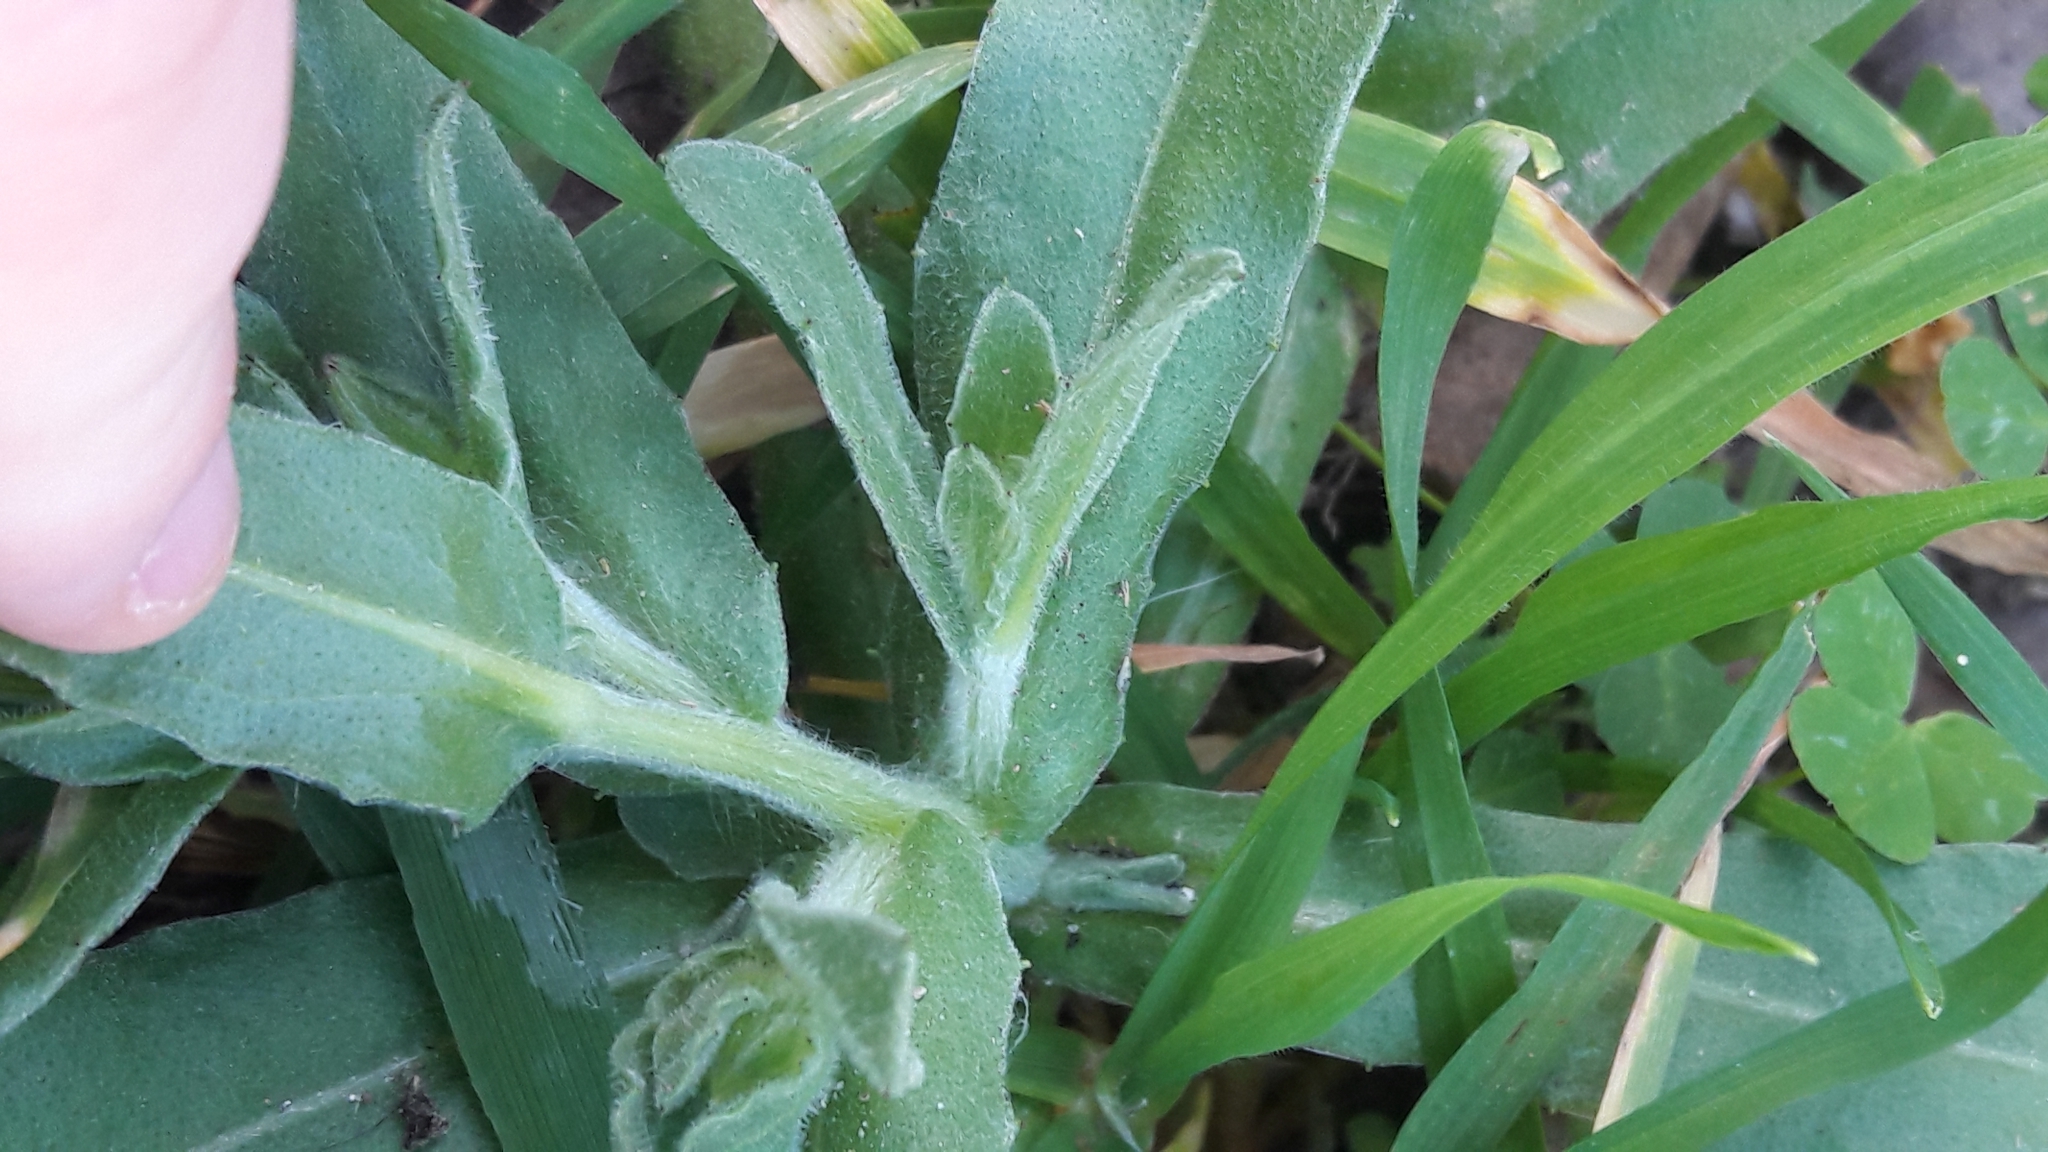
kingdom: Plantae
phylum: Tracheophyta
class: Magnoliopsida
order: Asterales
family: Asteraceae
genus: Calendula
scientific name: Calendula arvensis
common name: Field marigold
